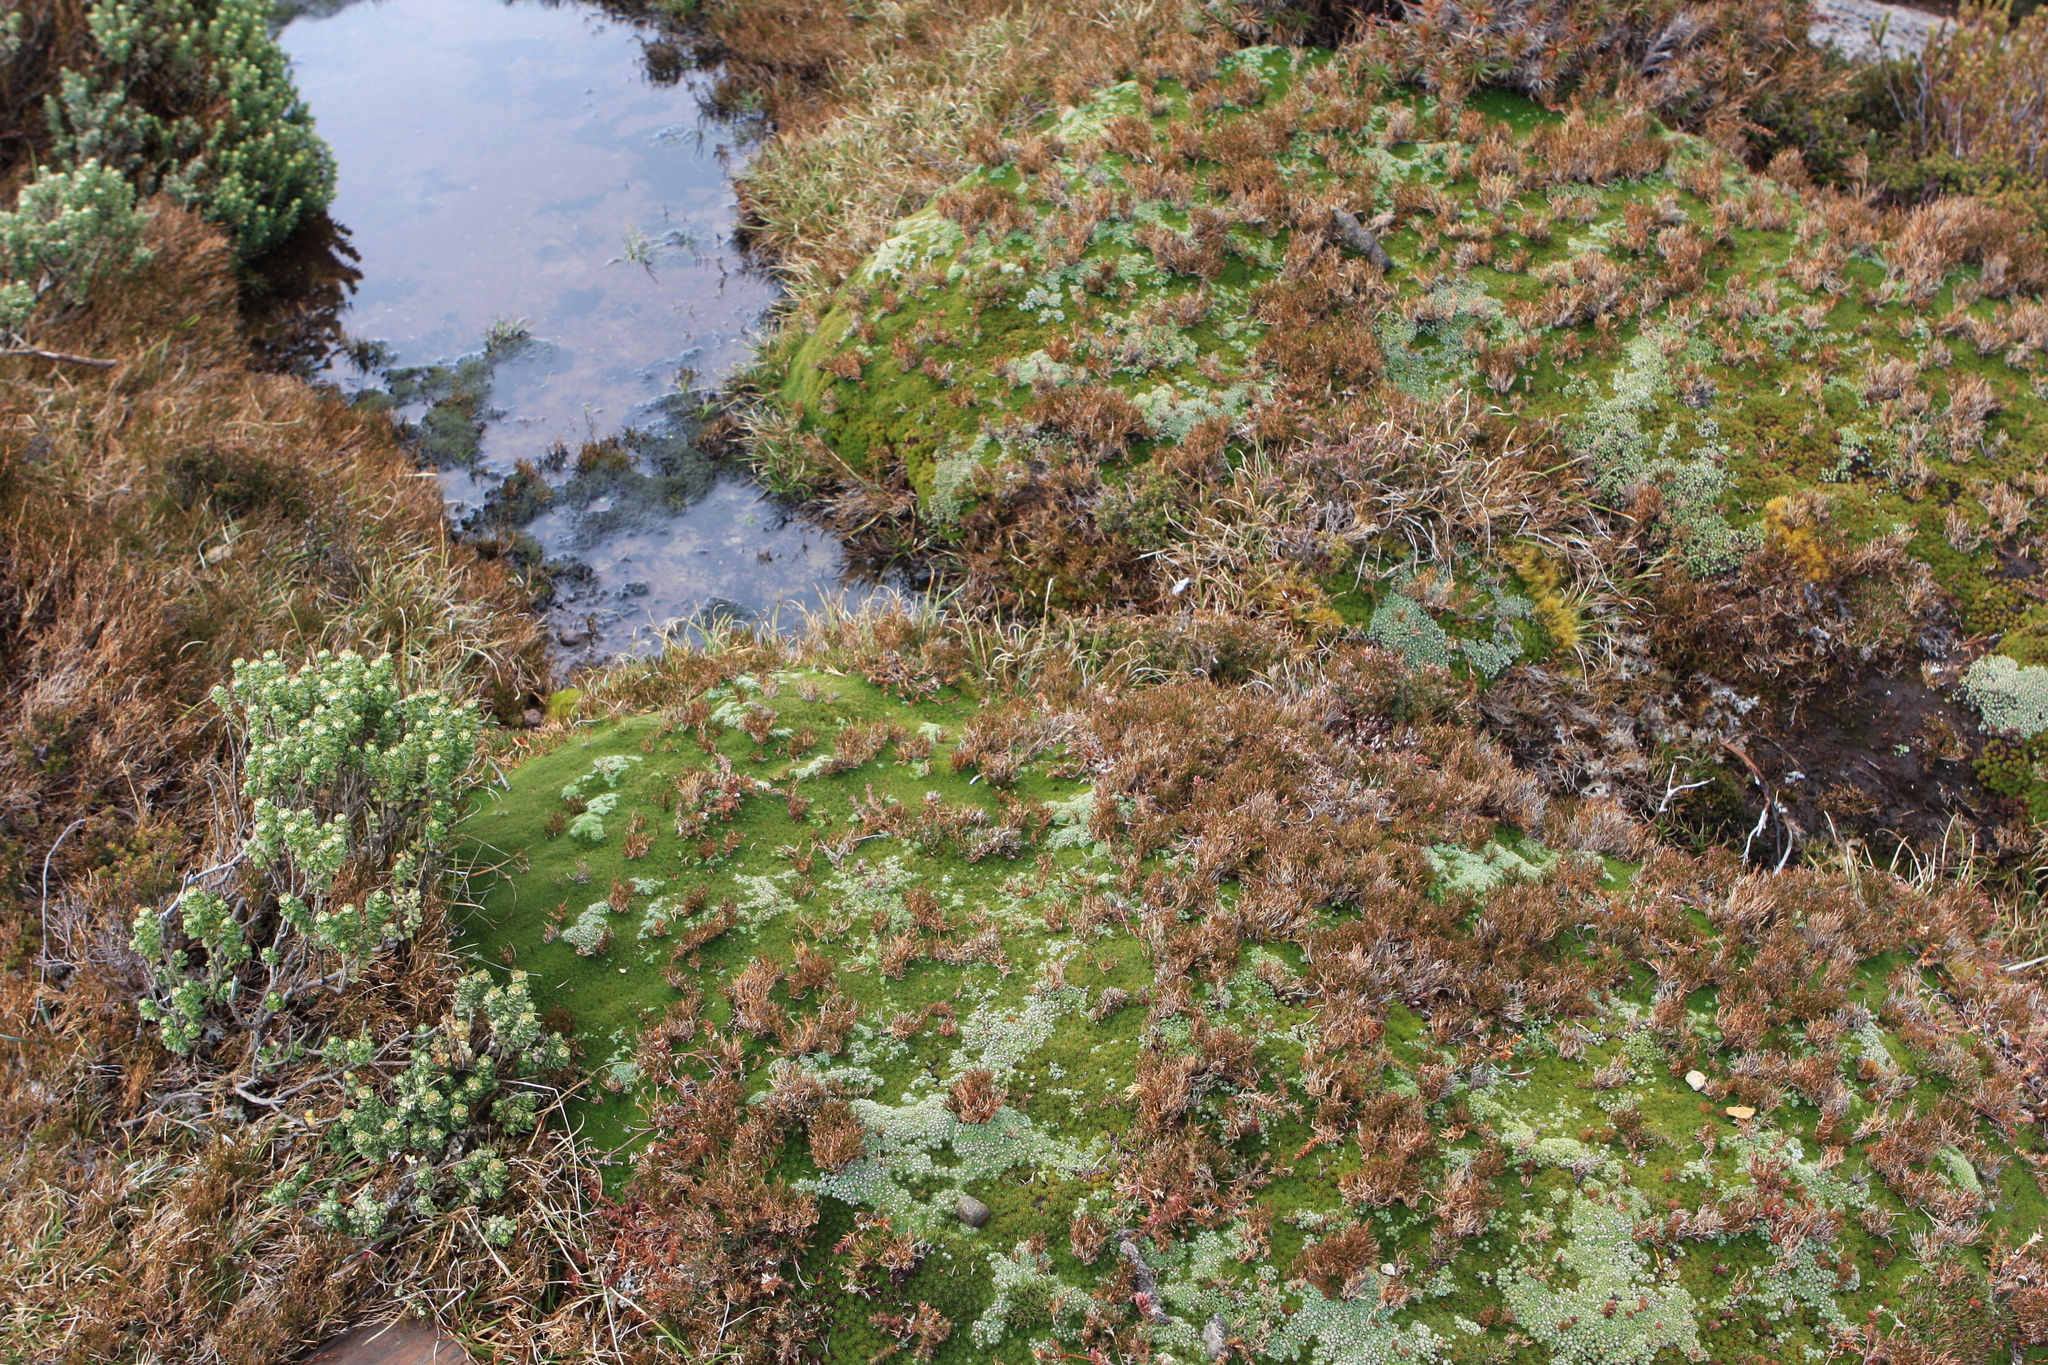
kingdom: Plantae
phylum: Tracheophyta
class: Magnoliopsida
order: Asterales
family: Asteraceae
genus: Ozothamnus
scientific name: Ozothamnus rodwayi
